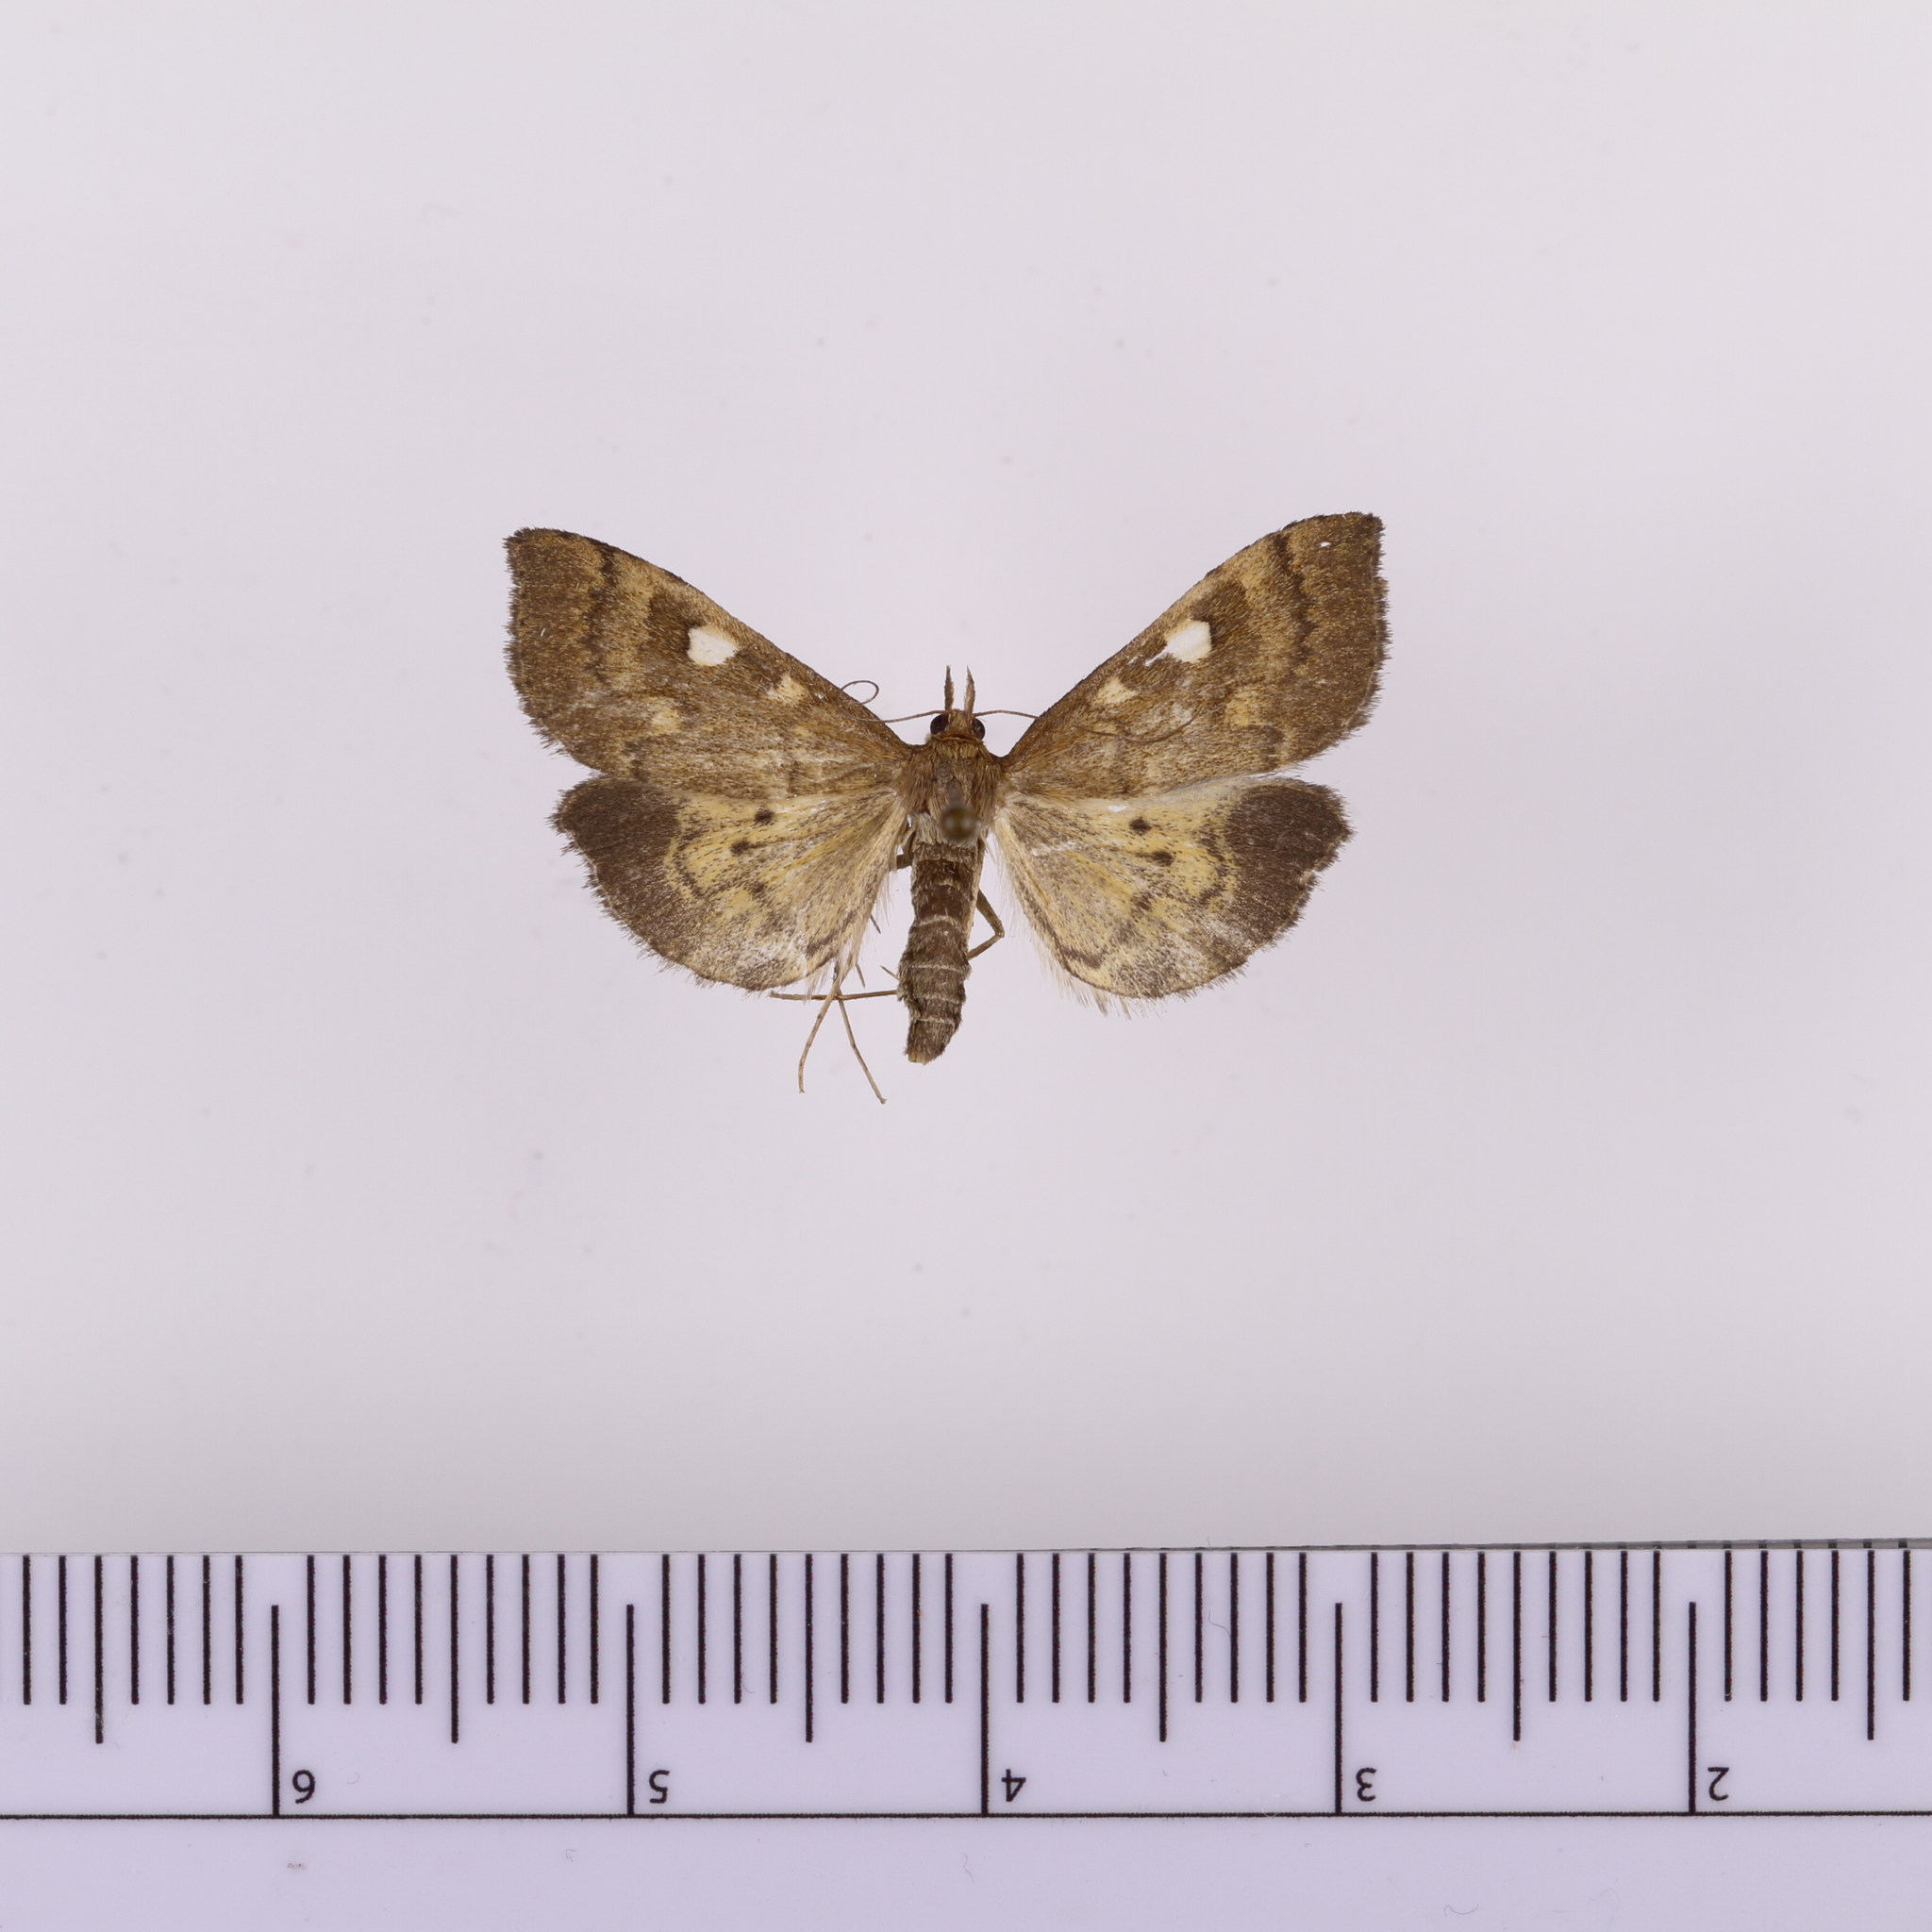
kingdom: Animalia
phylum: Arthropoda
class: Insecta
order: Lepidoptera
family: Crambidae
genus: Udea
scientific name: Udea Mnesictena marmarina
